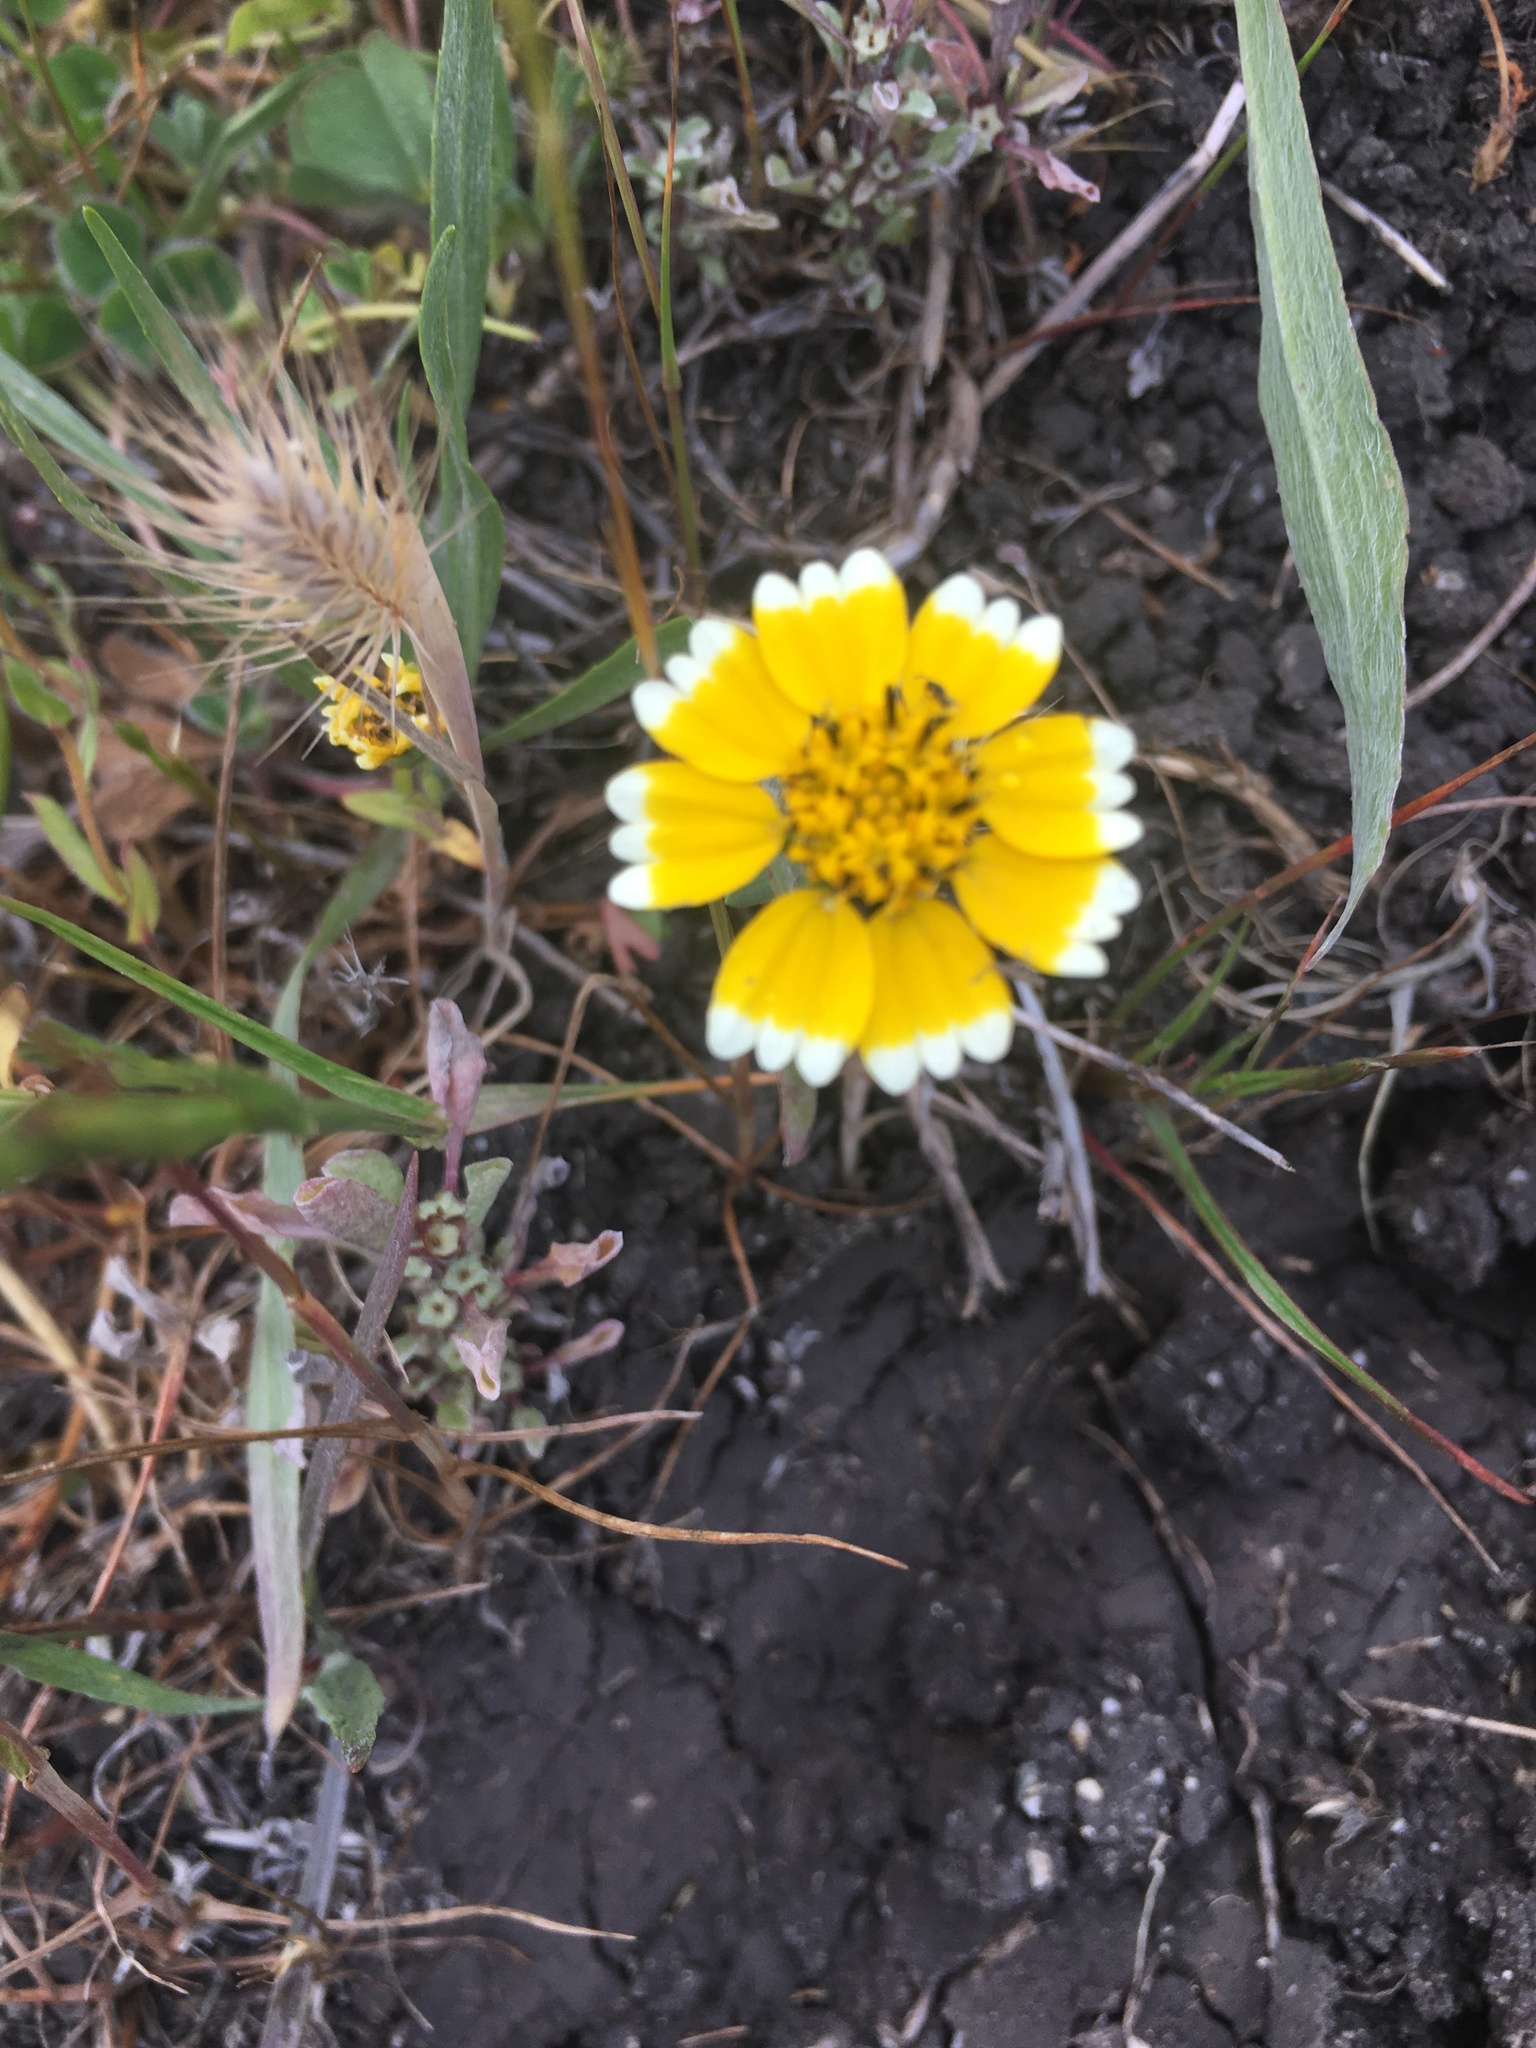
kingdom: Plantae
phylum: Tracheophyta
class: Magnoliopsida
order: Asterales
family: Asteraceae
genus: Layia
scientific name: Layia platyglossa
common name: Tidy-tips
